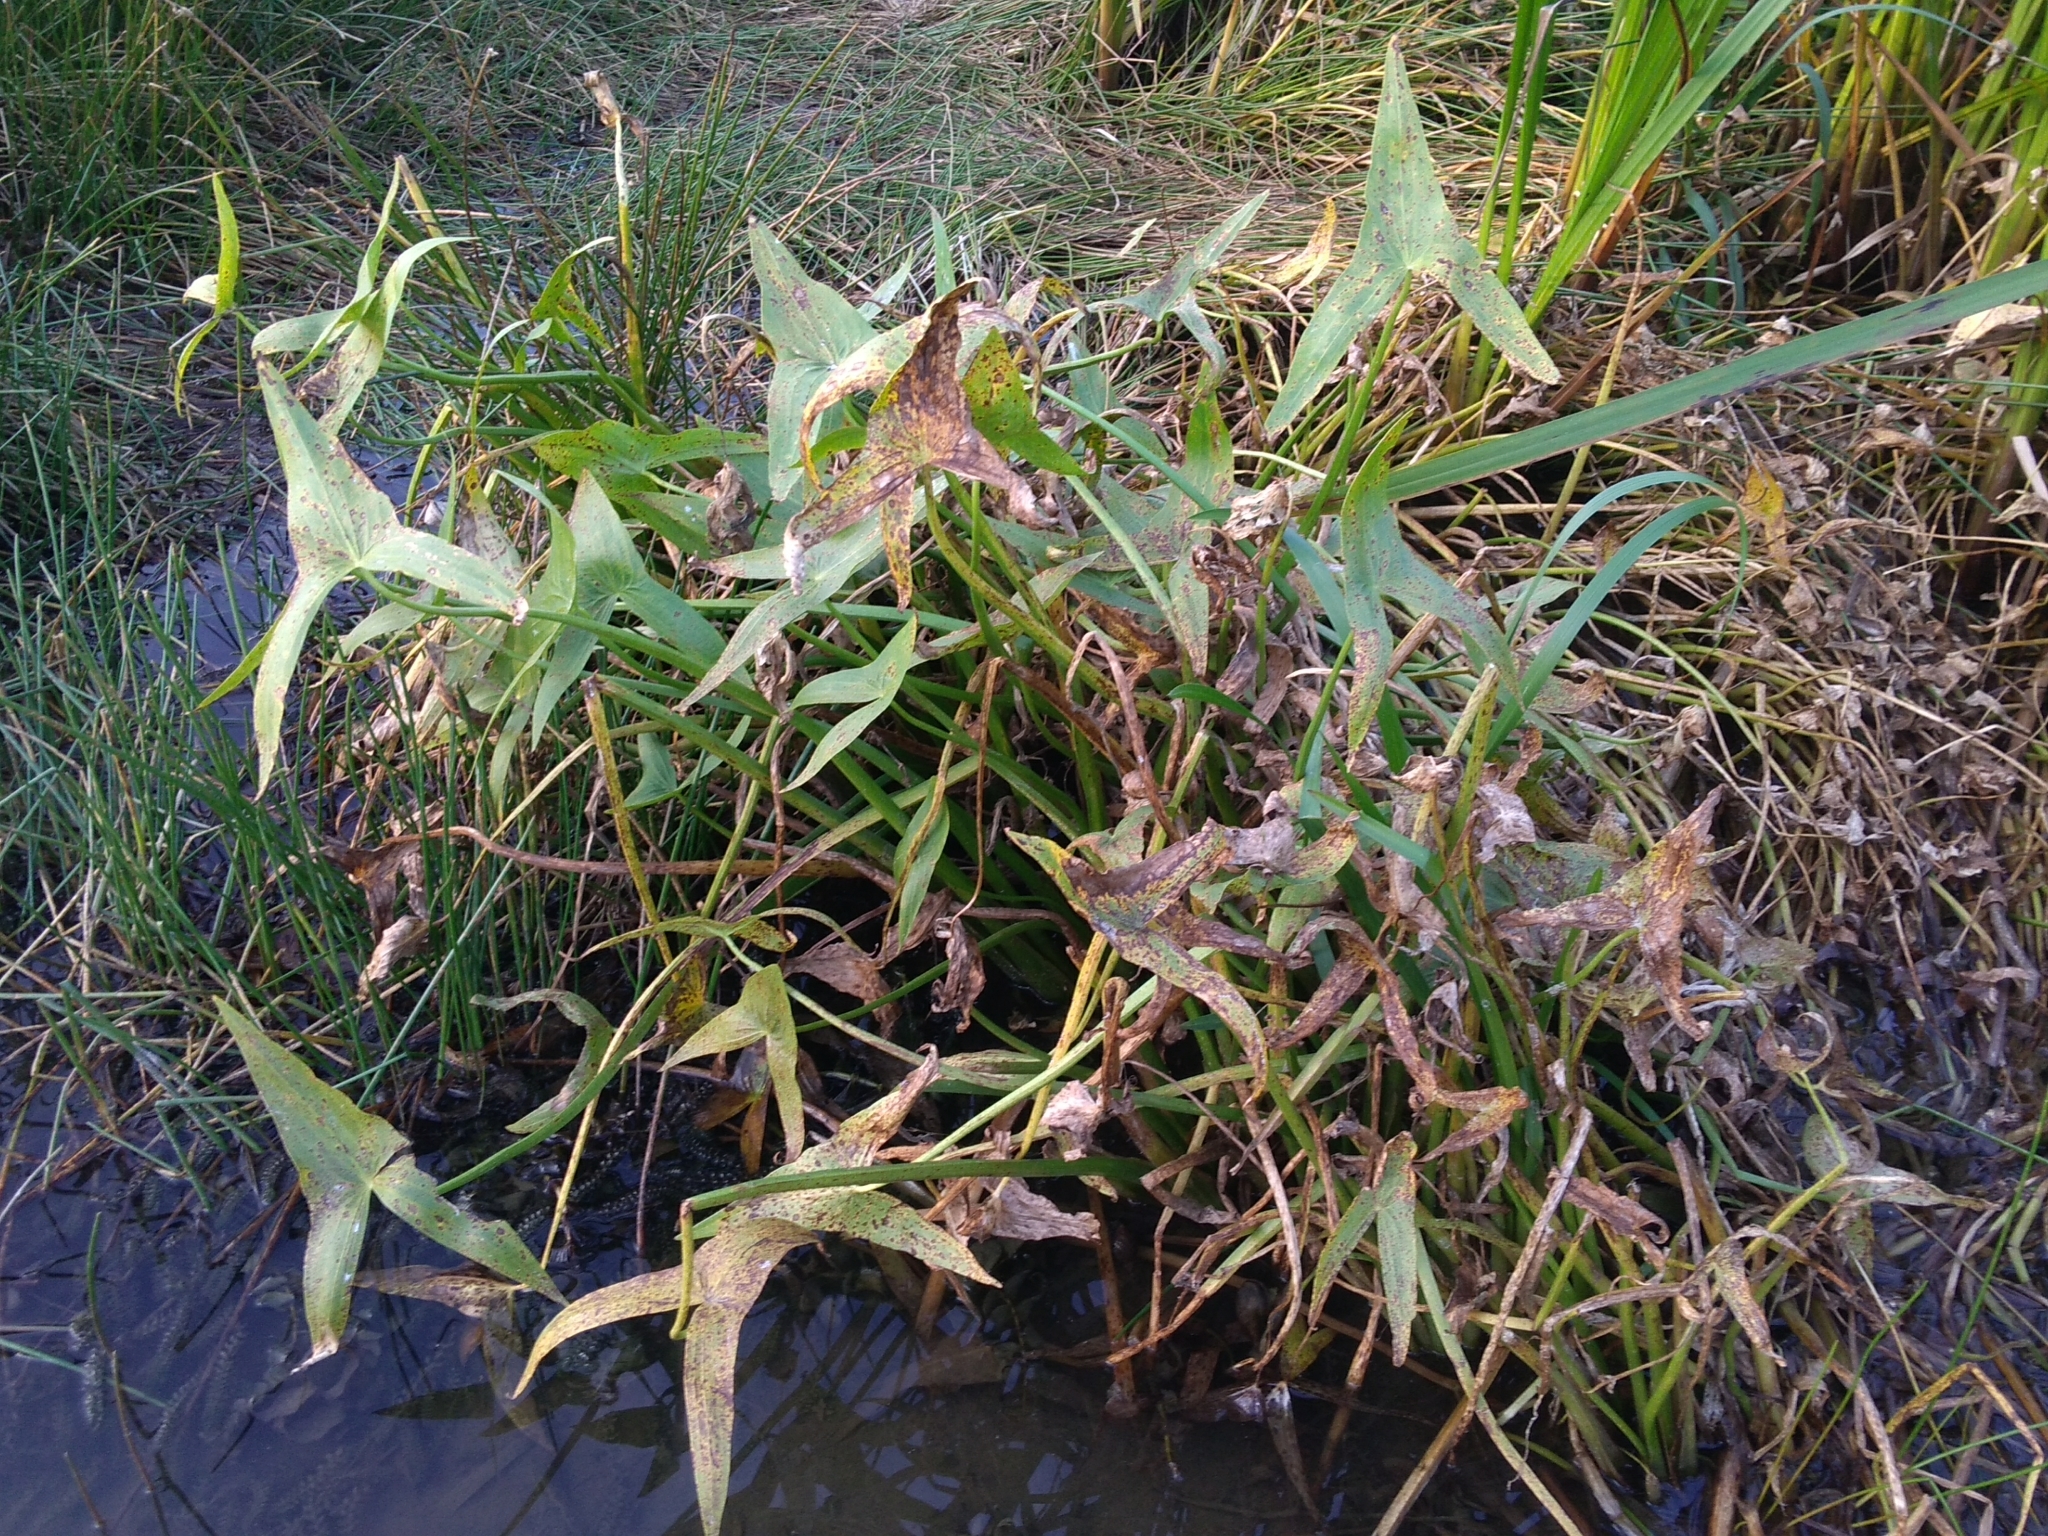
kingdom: Plantae
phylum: Tracheophyta
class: Liliopsida
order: Alismatales
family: Alismataceae
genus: Sagittaria
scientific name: Sagittaria sagittifolia
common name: Arrowhead
